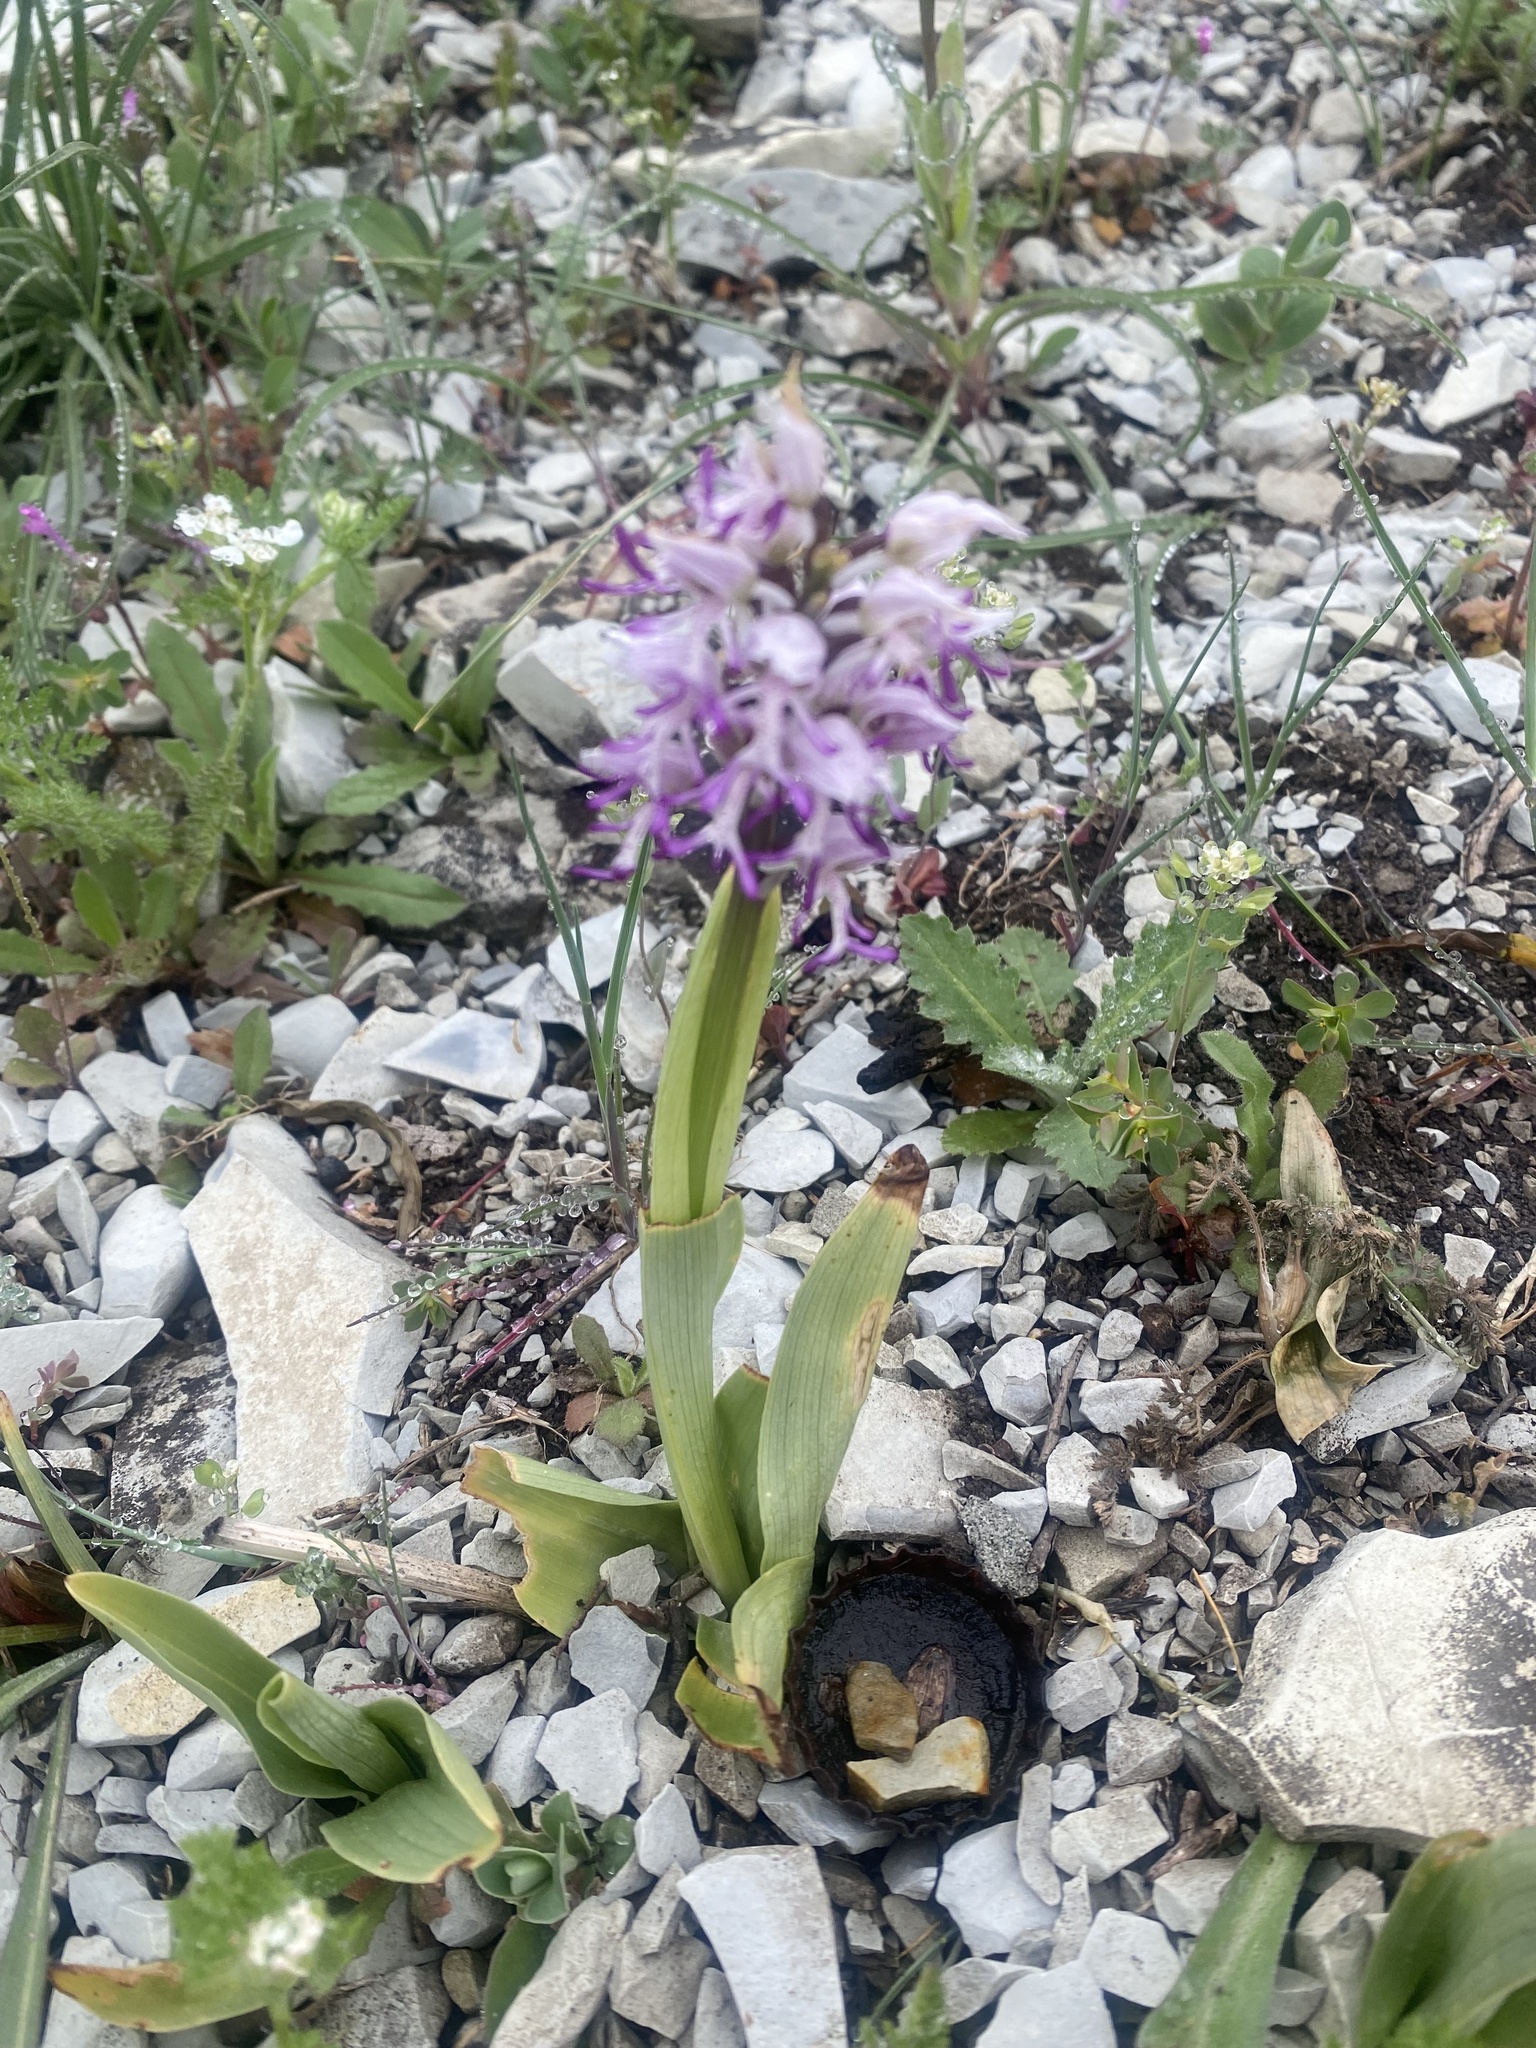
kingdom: Plantae
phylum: Tracheophyta
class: Liliopsida
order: Asparagales
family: Orchidaceae
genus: Orchis
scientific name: Orchis simia
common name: Monkey orchid
